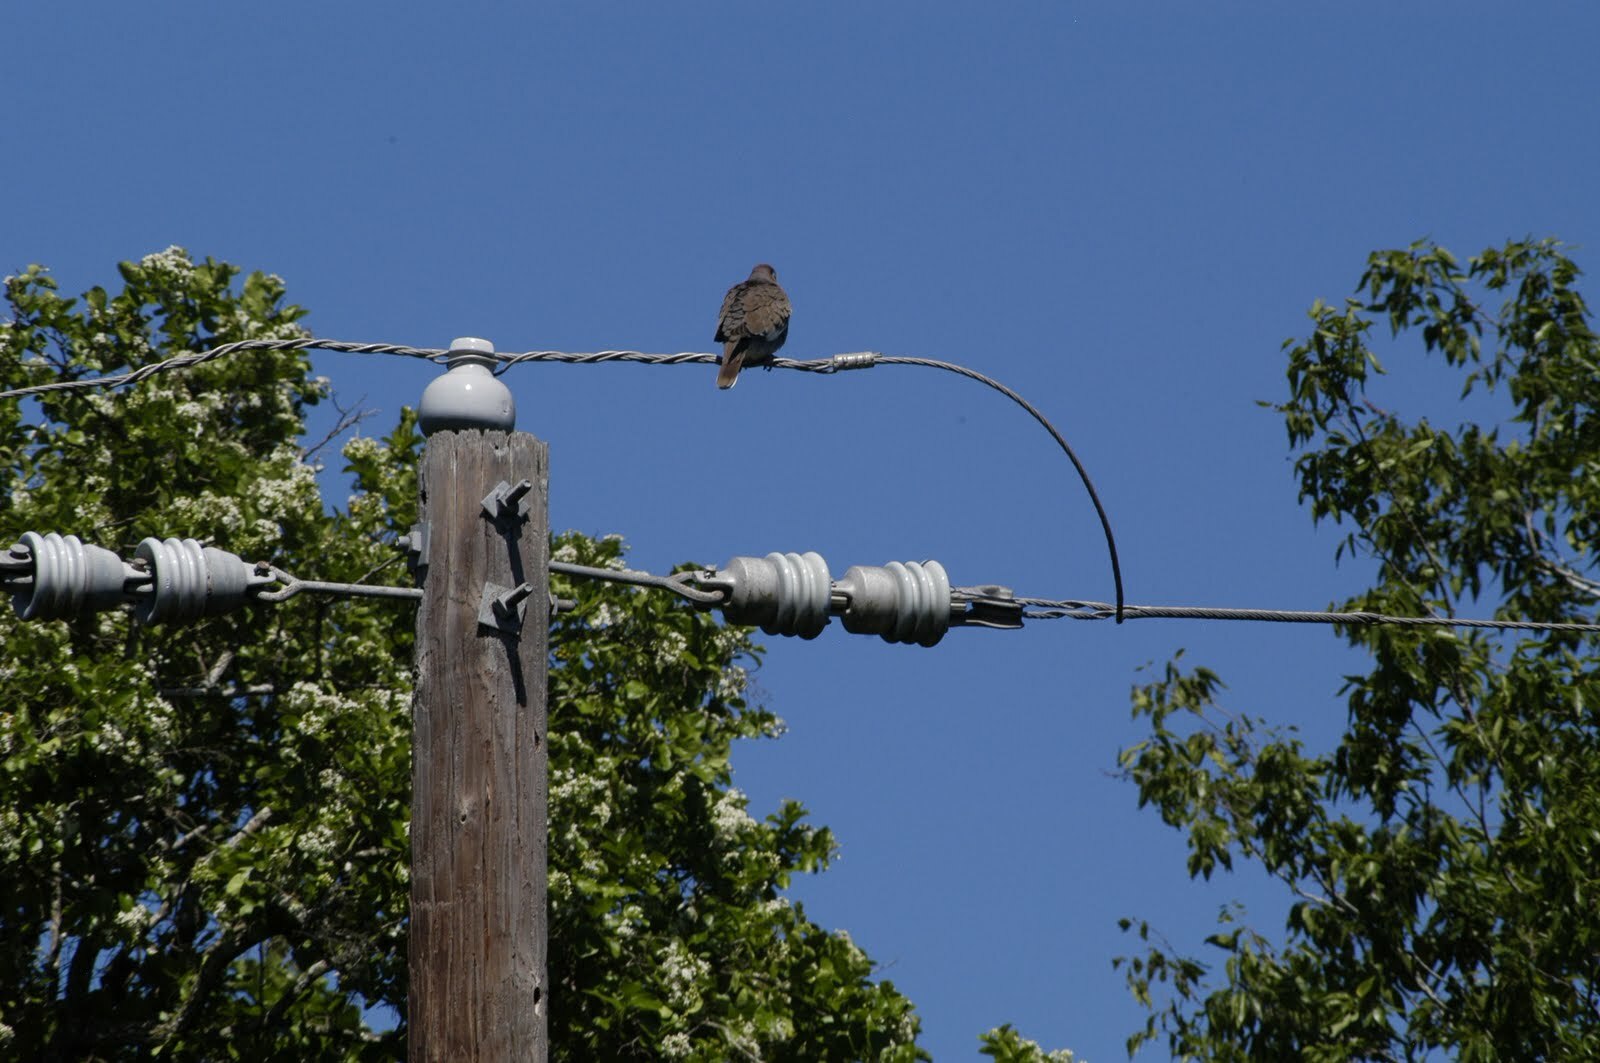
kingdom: Animalia
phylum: Chordata
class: Aves
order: Columbiformes
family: Columbidae
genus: Zenaida
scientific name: Zenaida asiatica
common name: White-winged dove
